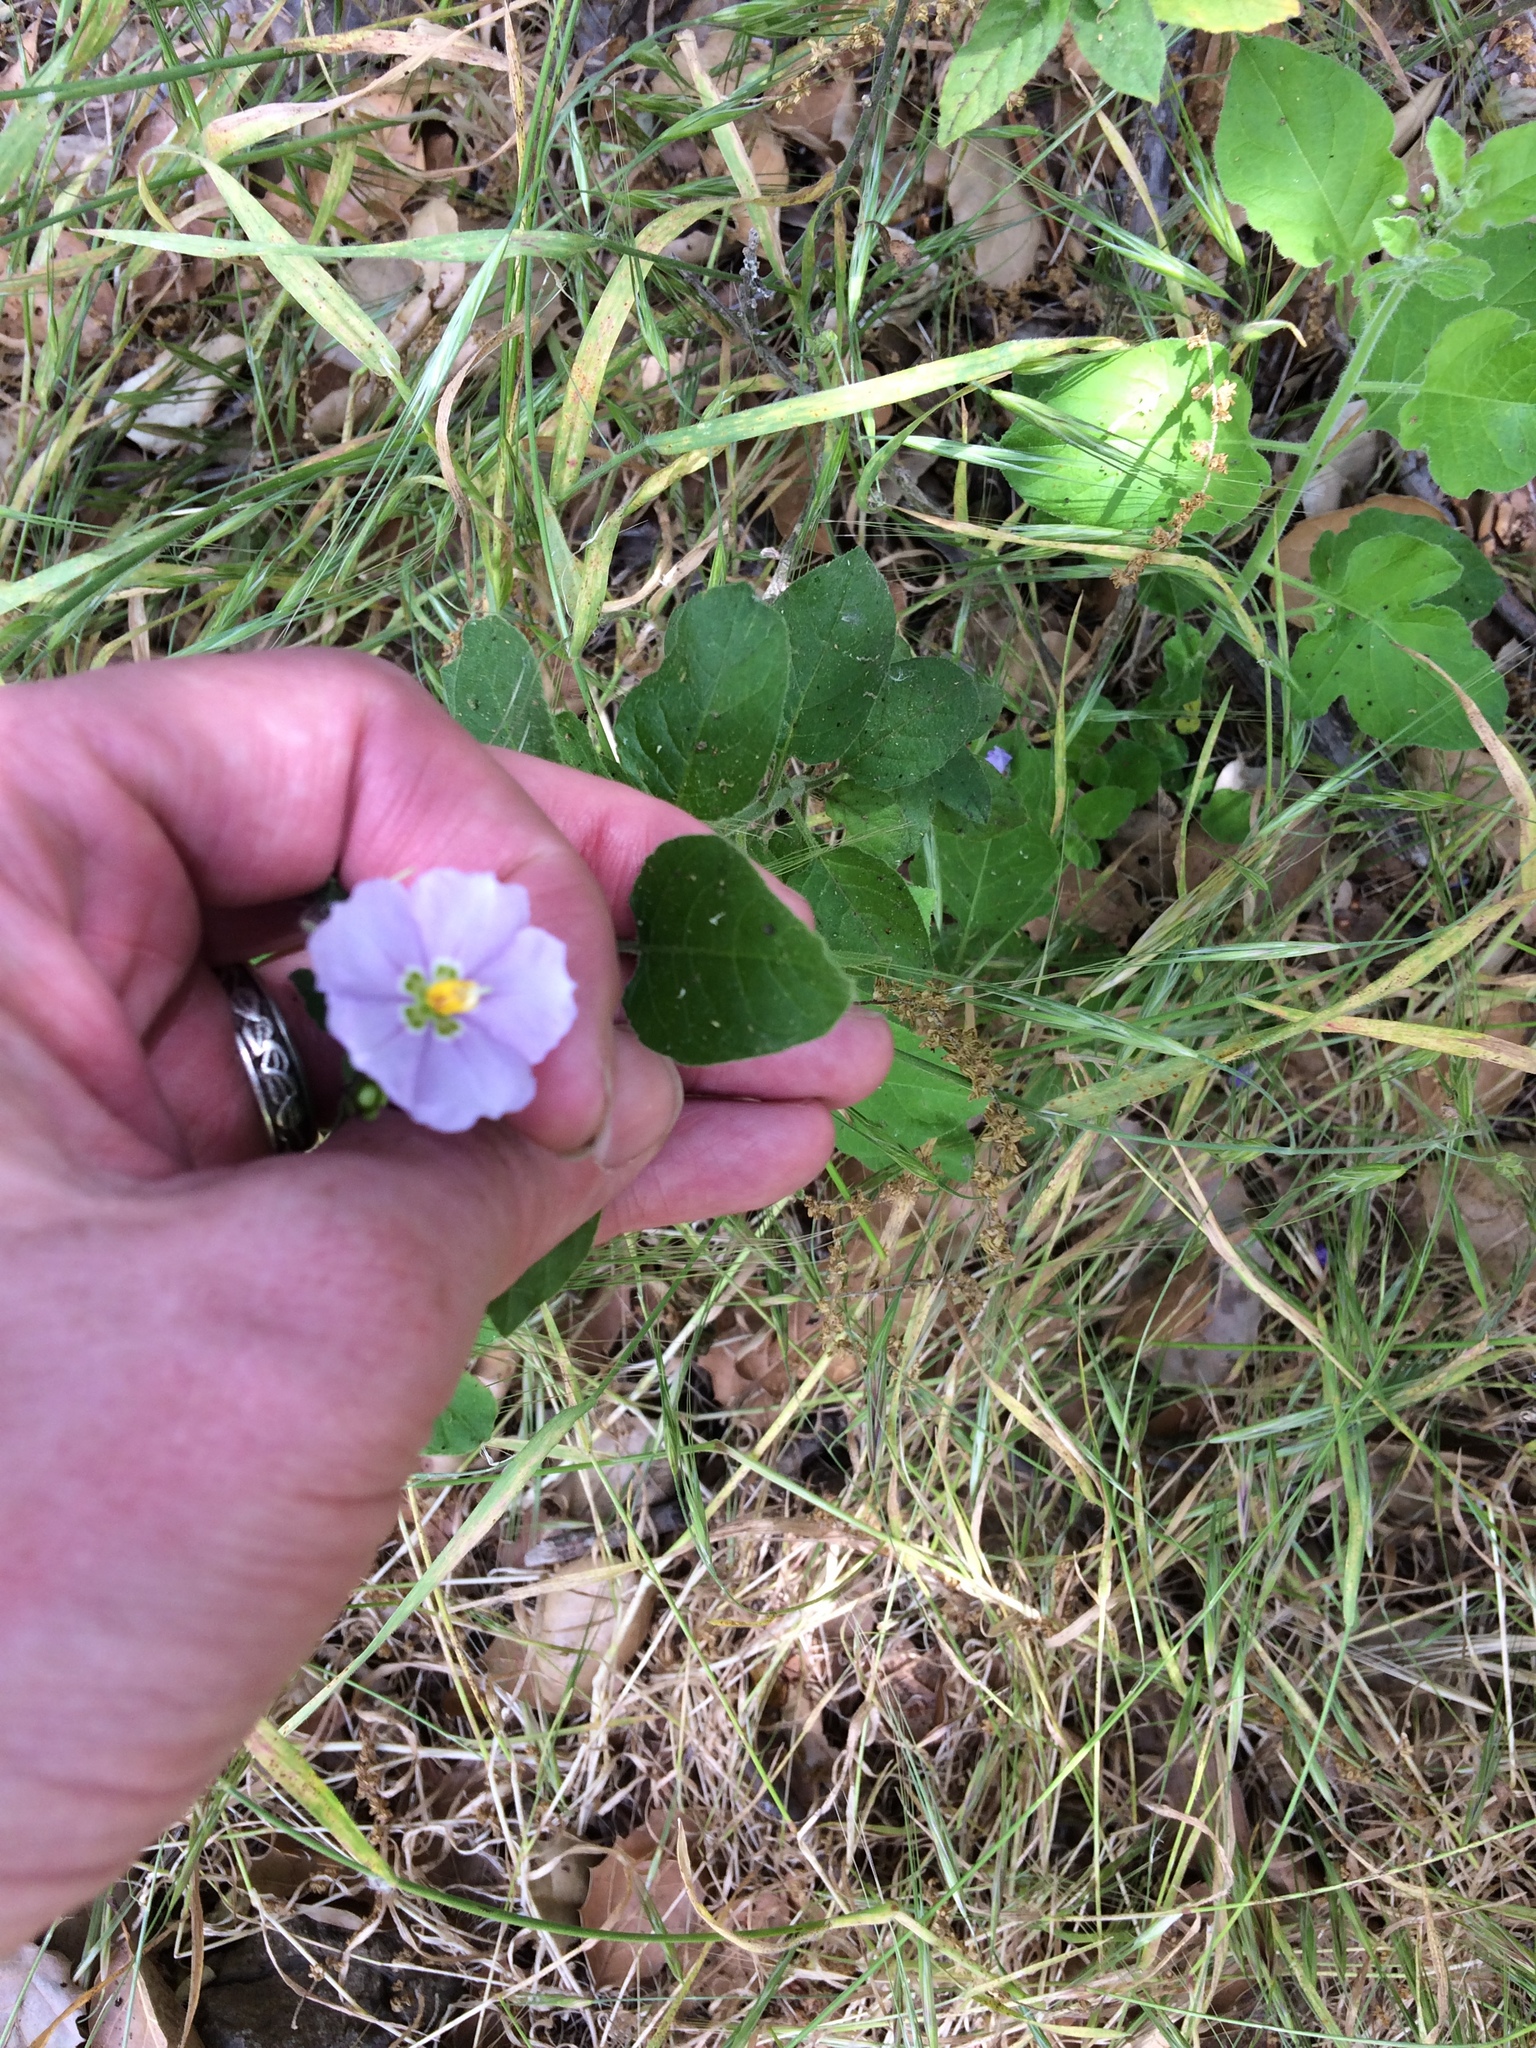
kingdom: Plantae
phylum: Tracheophyta
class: Magnoliopsida
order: Solanales
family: Solanaceae
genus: Solanum
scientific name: Solanum umbelliferum
